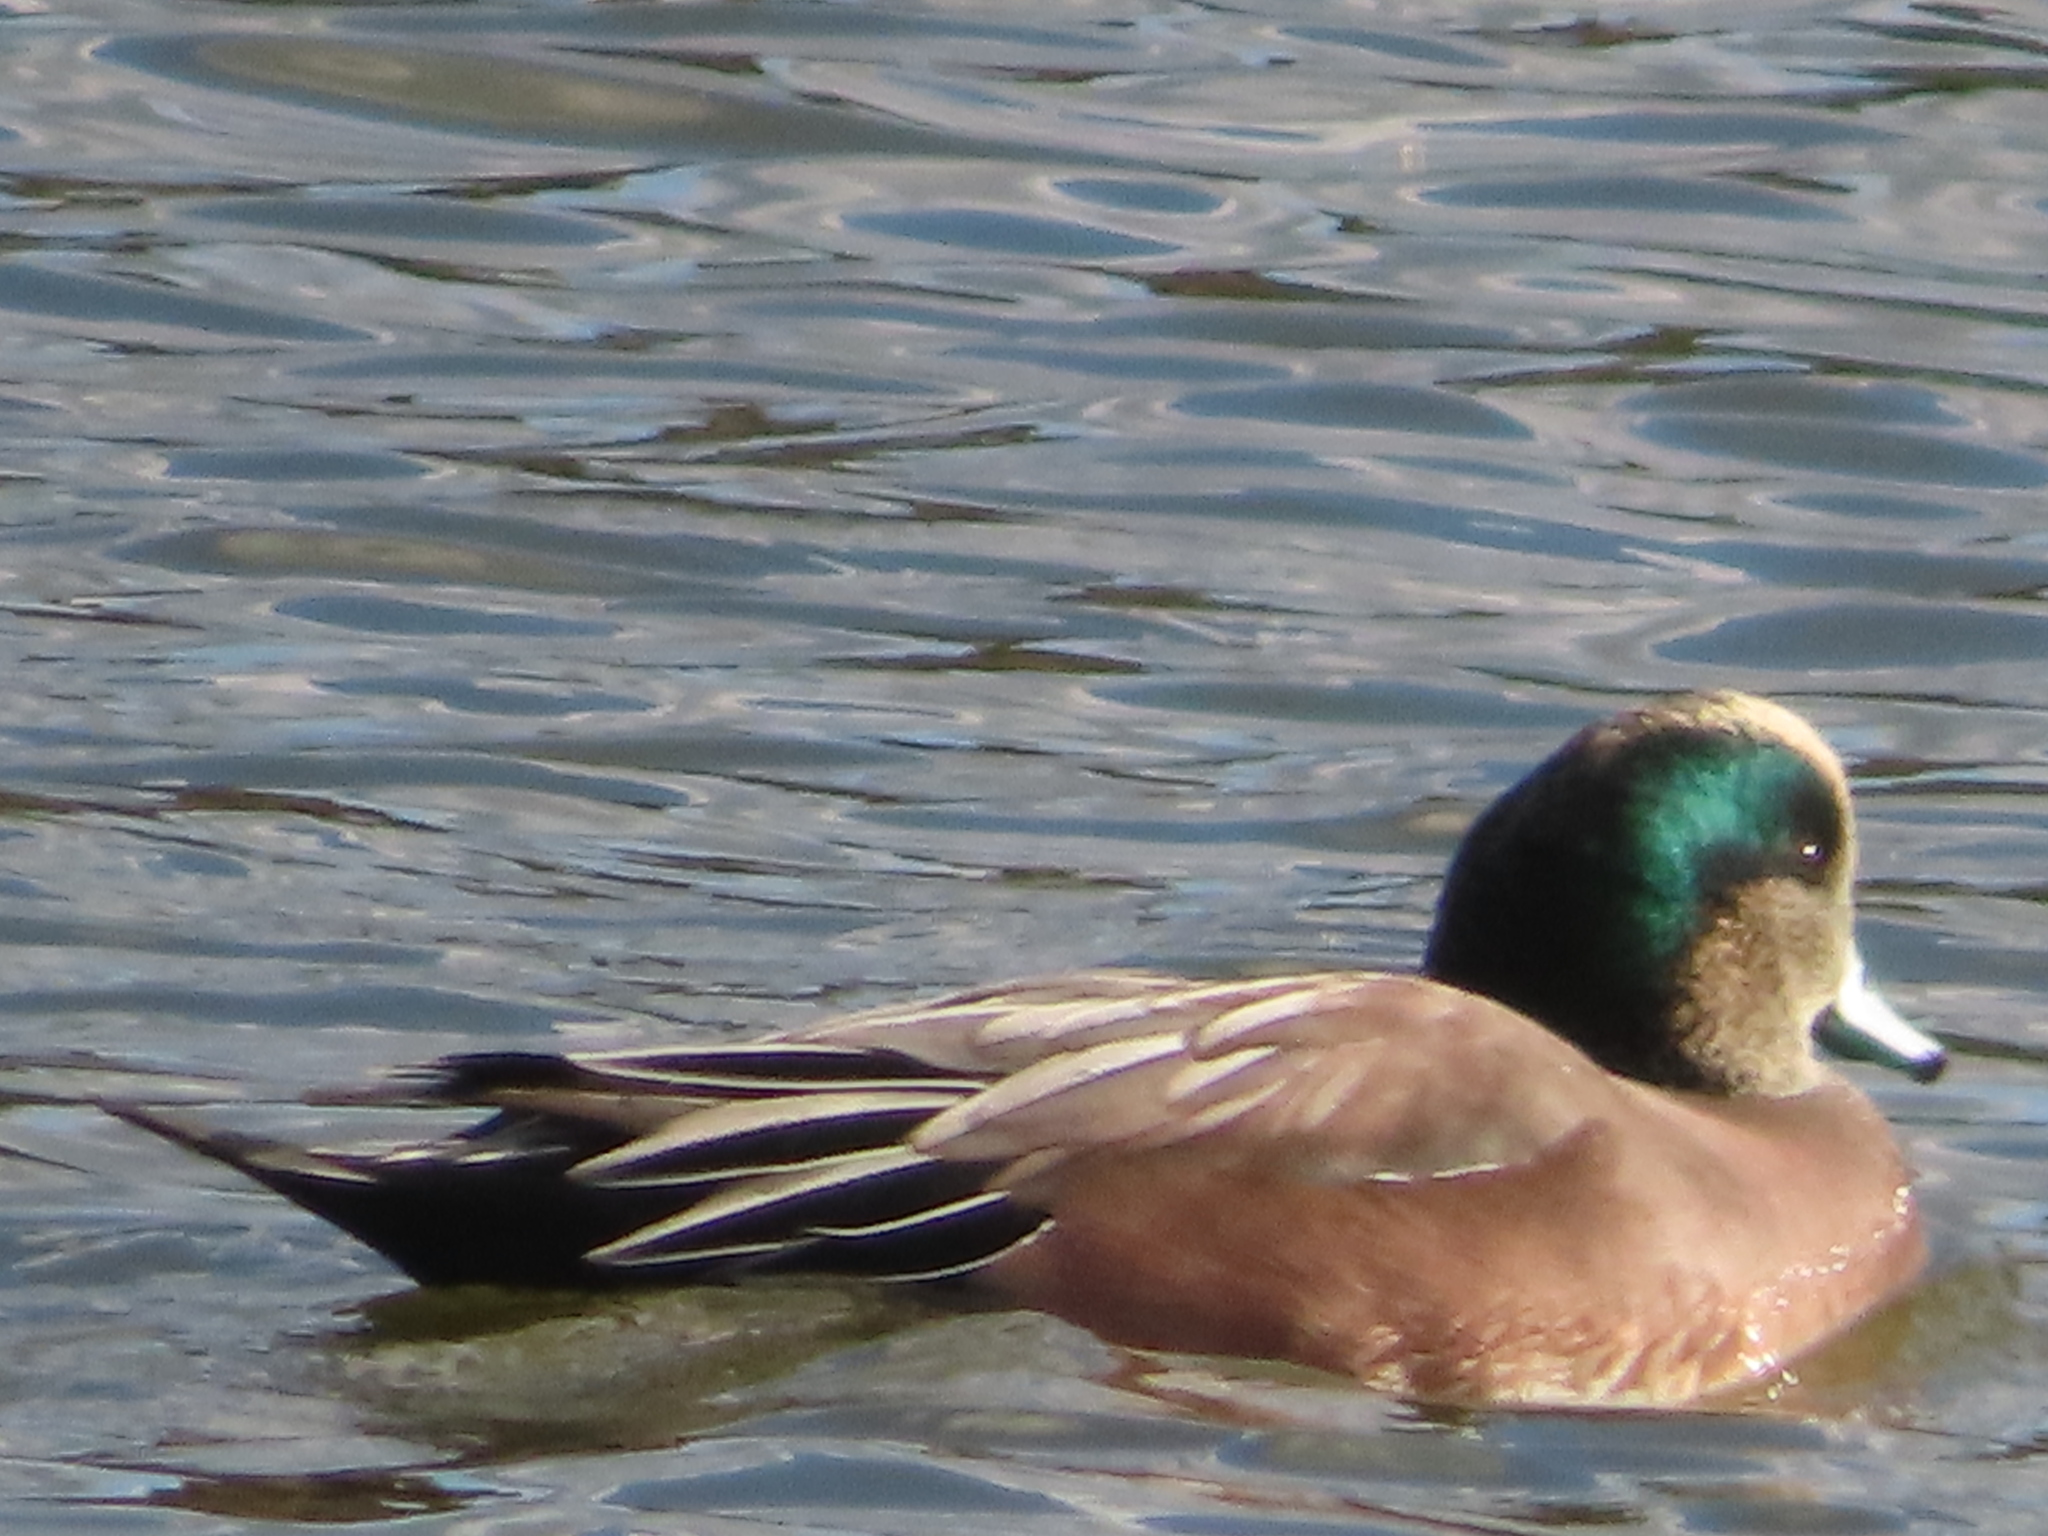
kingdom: Animalia
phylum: Chordata
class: Aves
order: Anseriformes
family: Anatidae
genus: Mareca
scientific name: Mareca americana
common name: American wigeon
